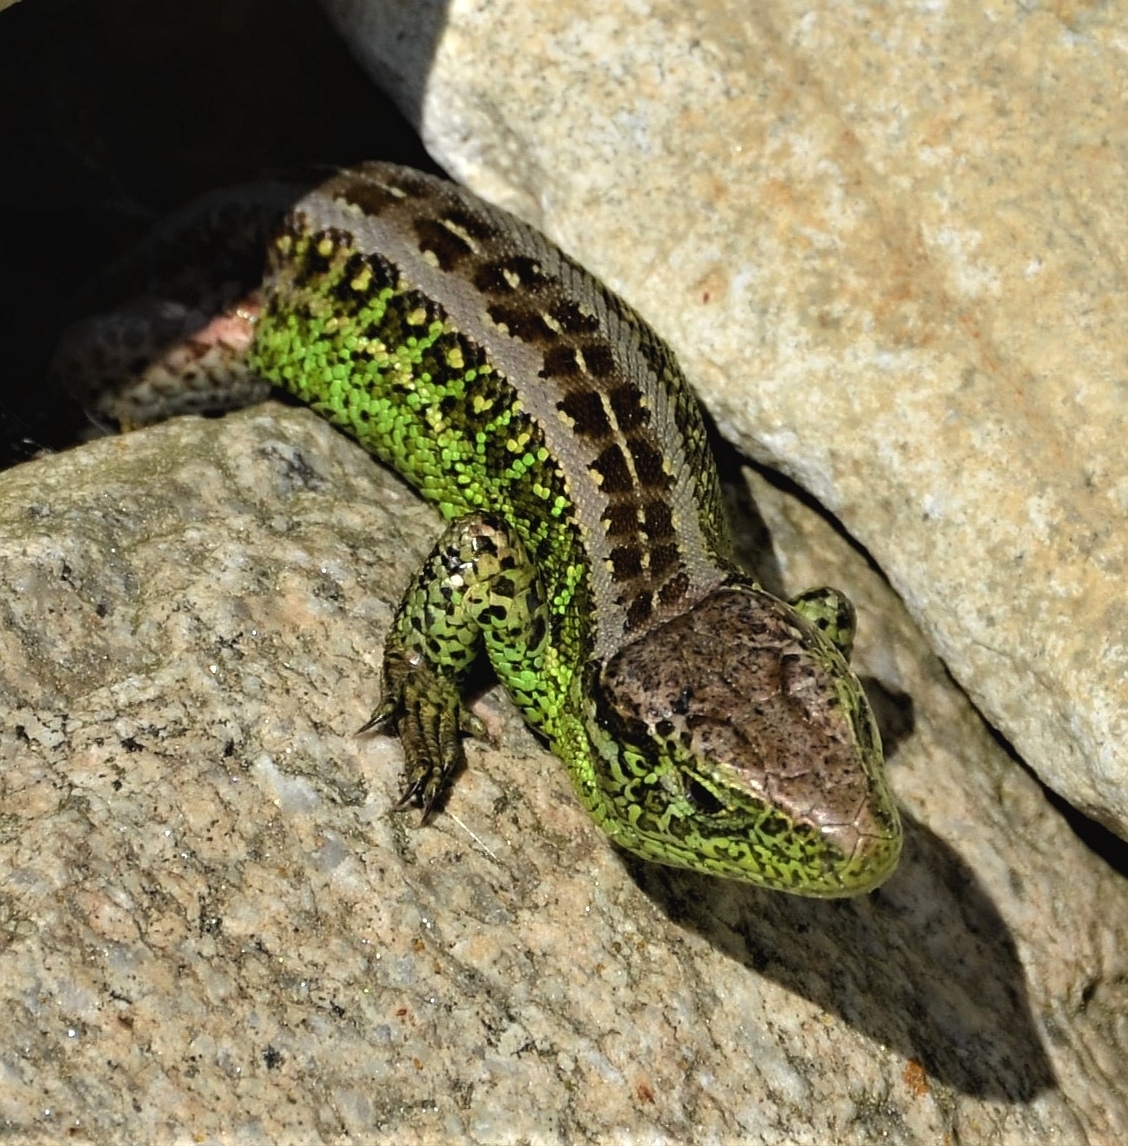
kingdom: Animalia
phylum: Chordata
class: Squamata
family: Lacertidae
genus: Lacerta
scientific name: Lacerta agilis
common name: Sand lizard
